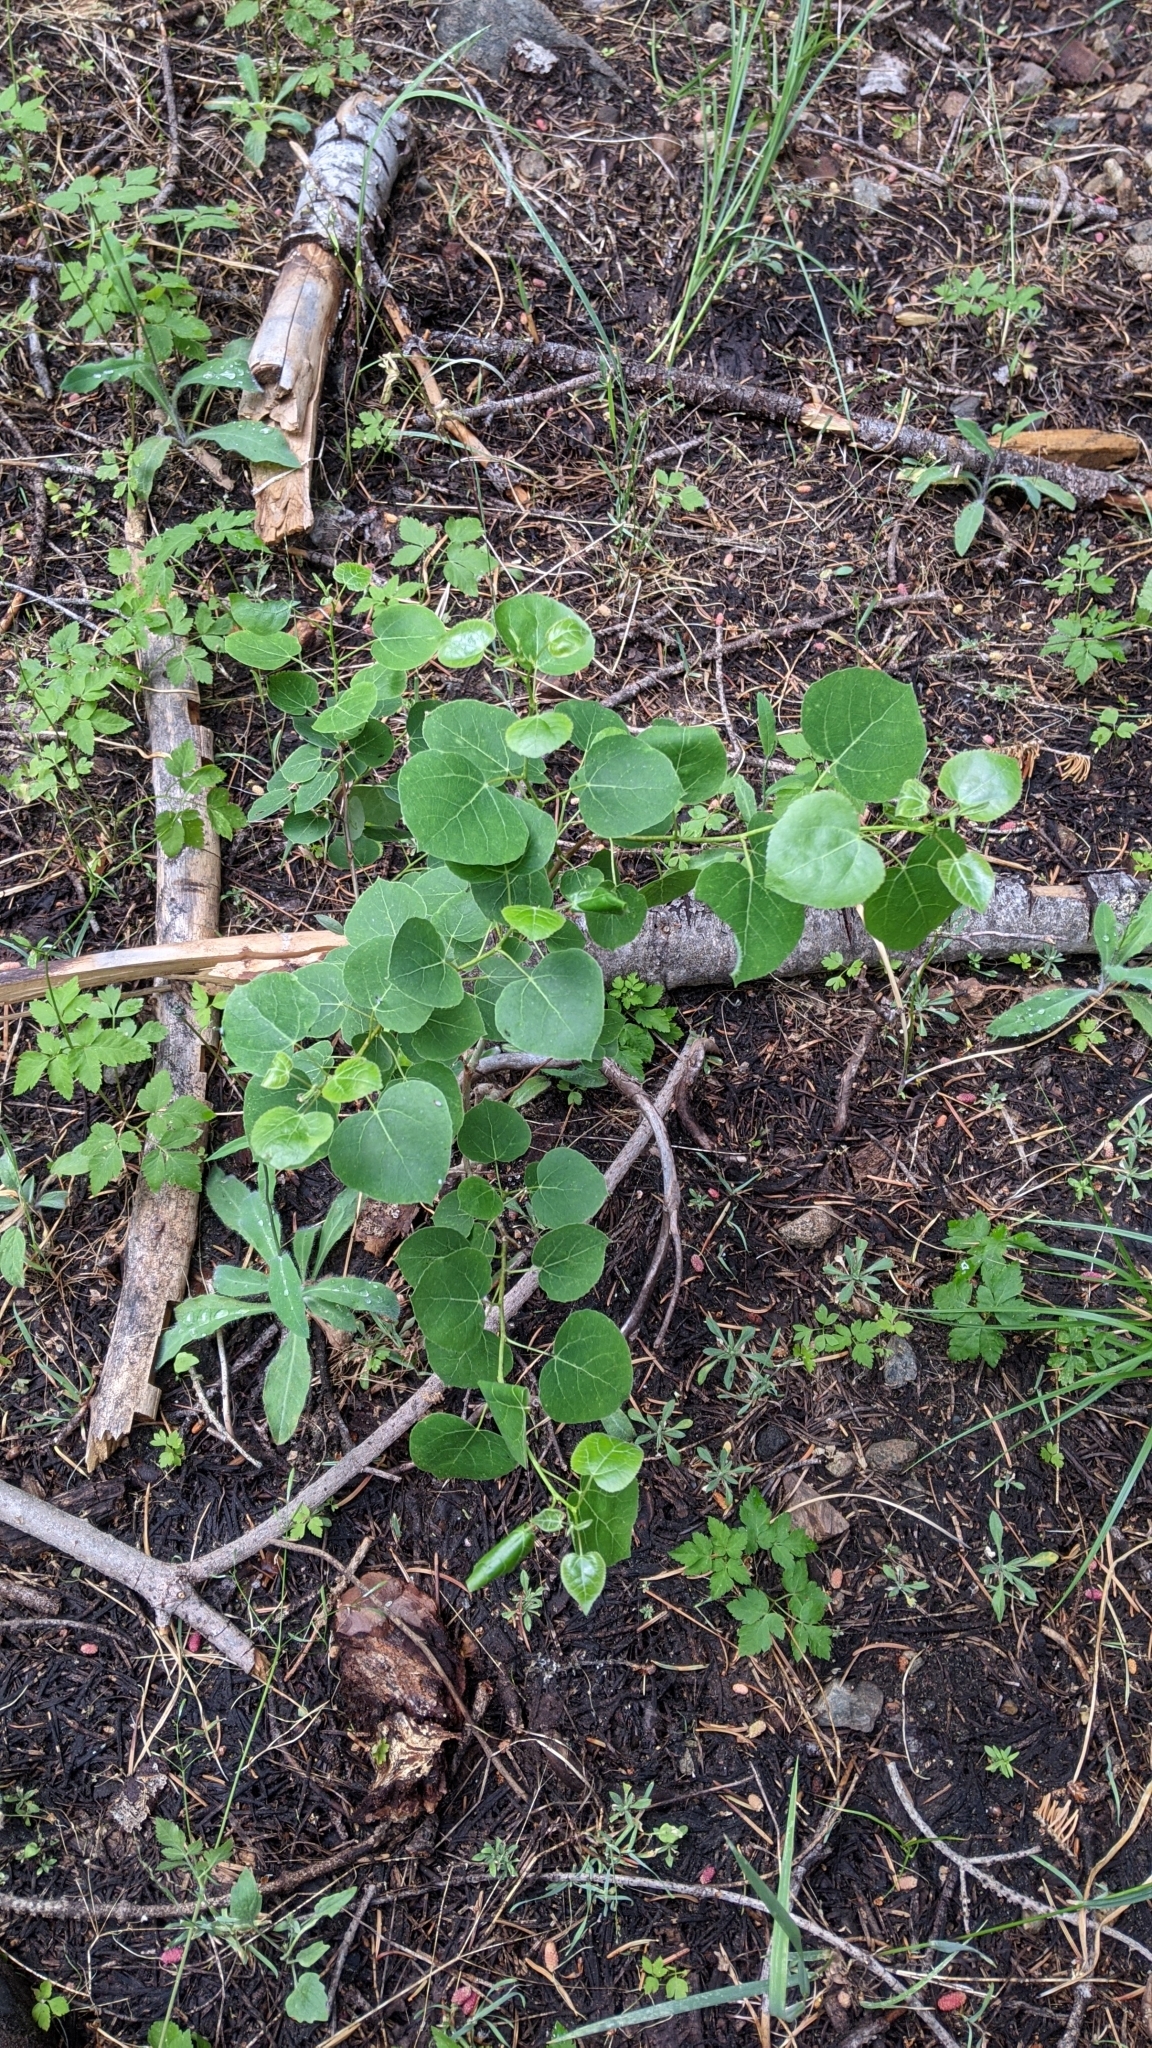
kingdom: Plantae
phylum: Tracheophyta
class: Magnoliopsida
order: Malpighiales
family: Salicaceae
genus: Populus
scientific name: Populus tremuloides
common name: Quaking aspen
